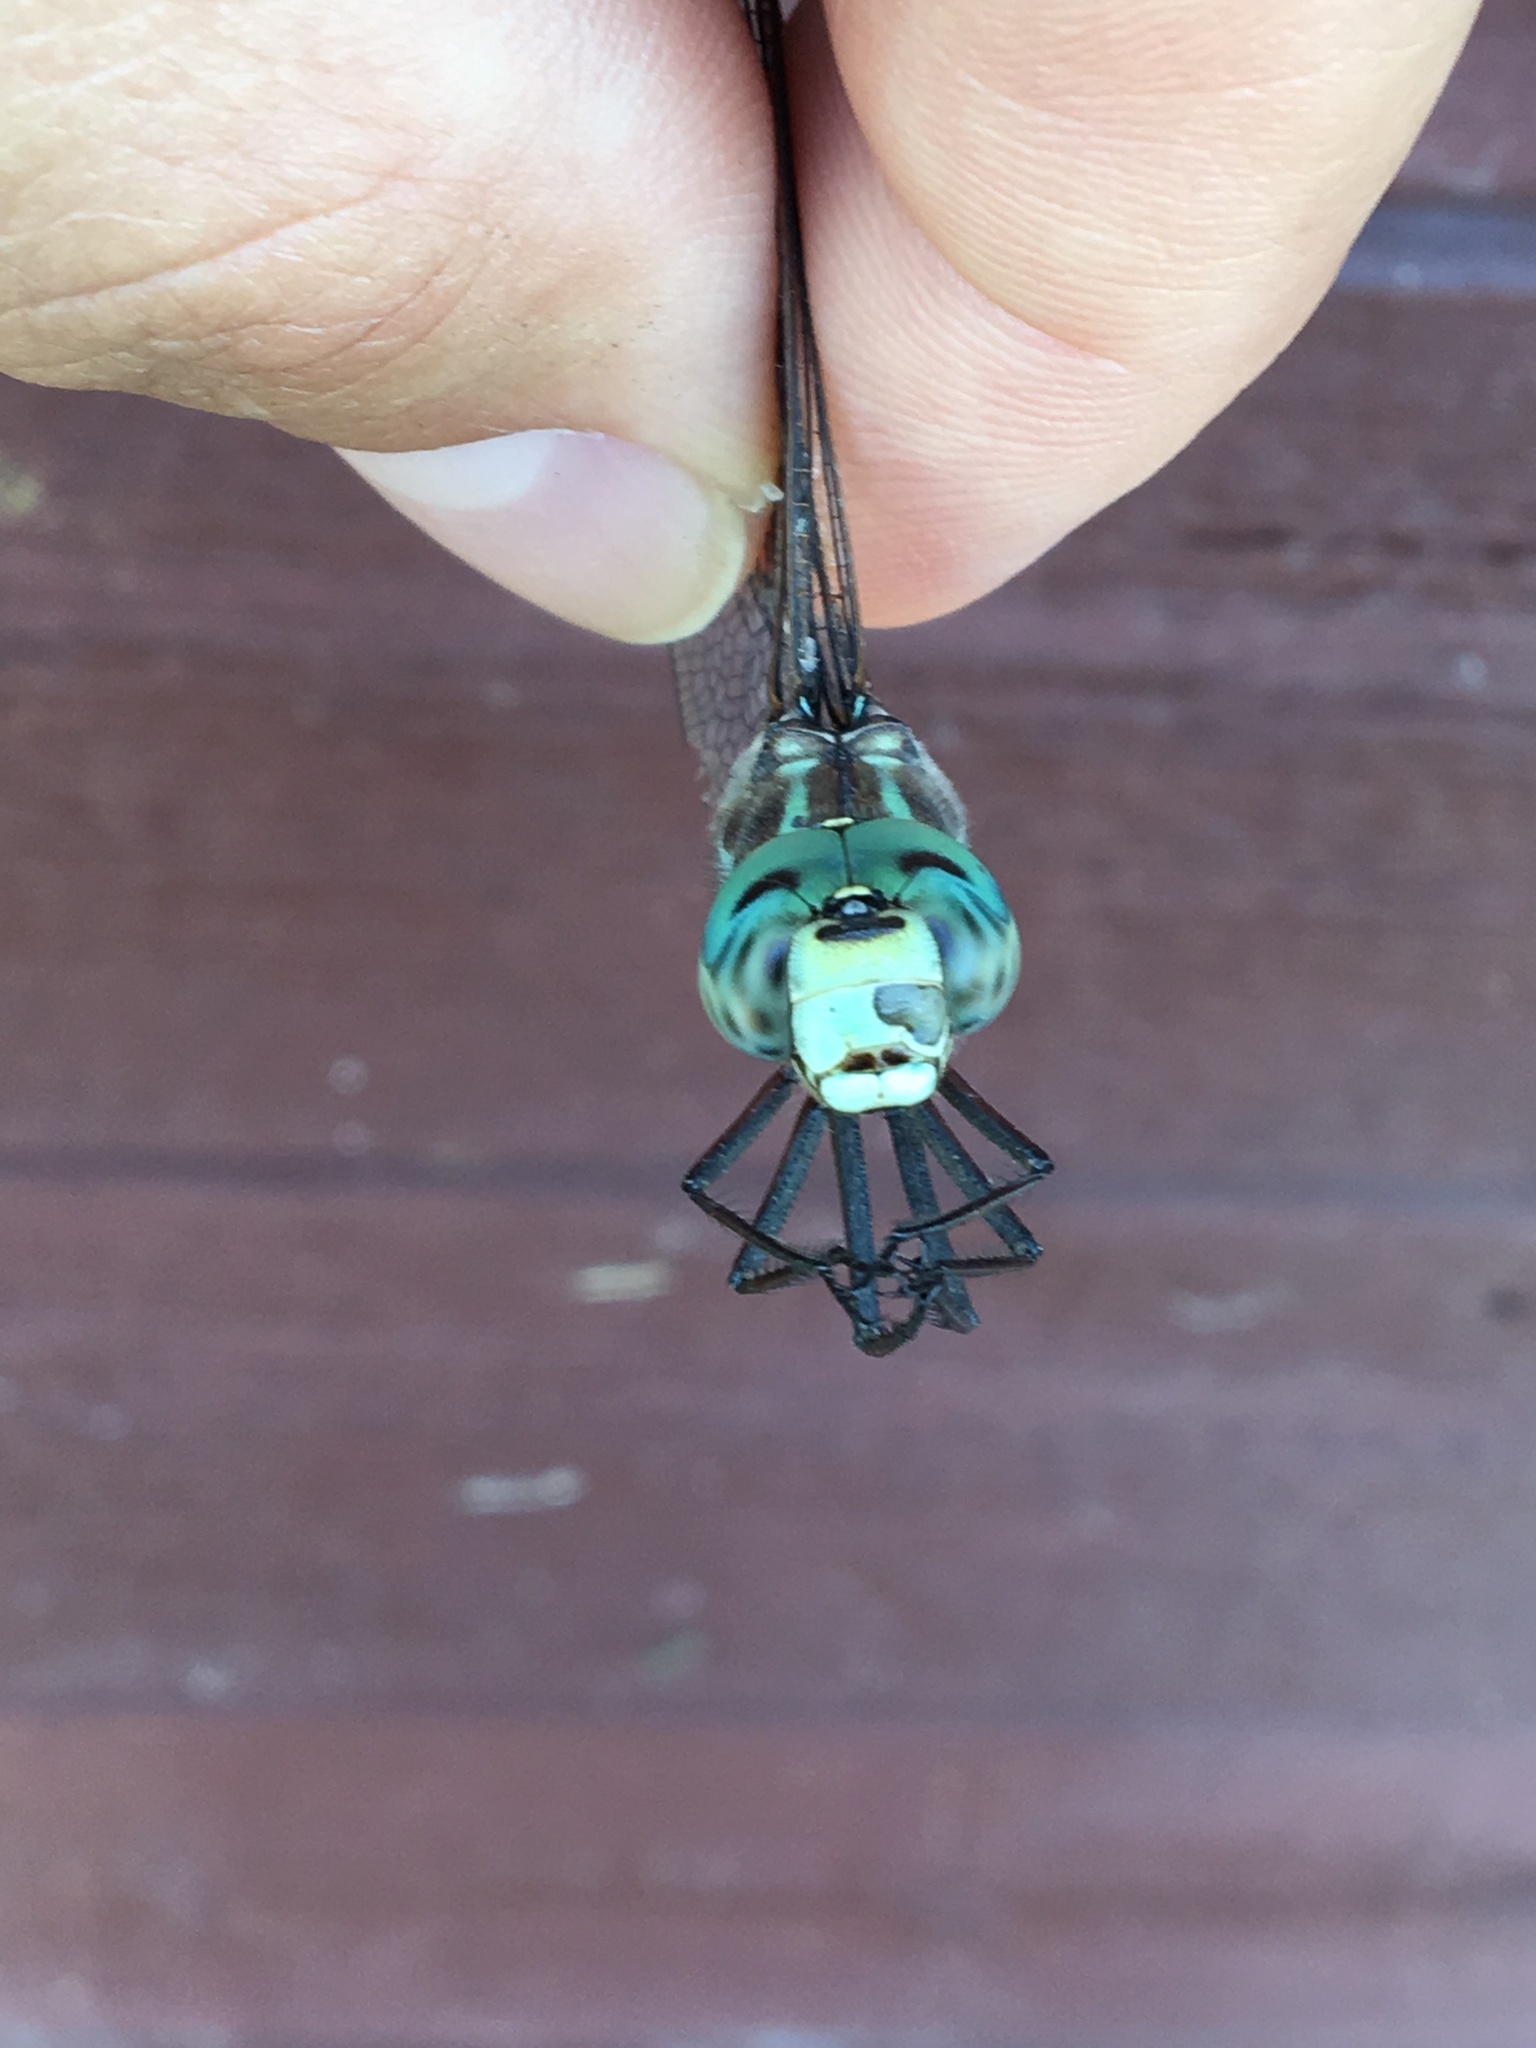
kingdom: Animalia
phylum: Arthropoda
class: Insecta
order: Odonata
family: Aeshnidae
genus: Aeshna
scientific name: Aeshna canadensis
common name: Canada darner
